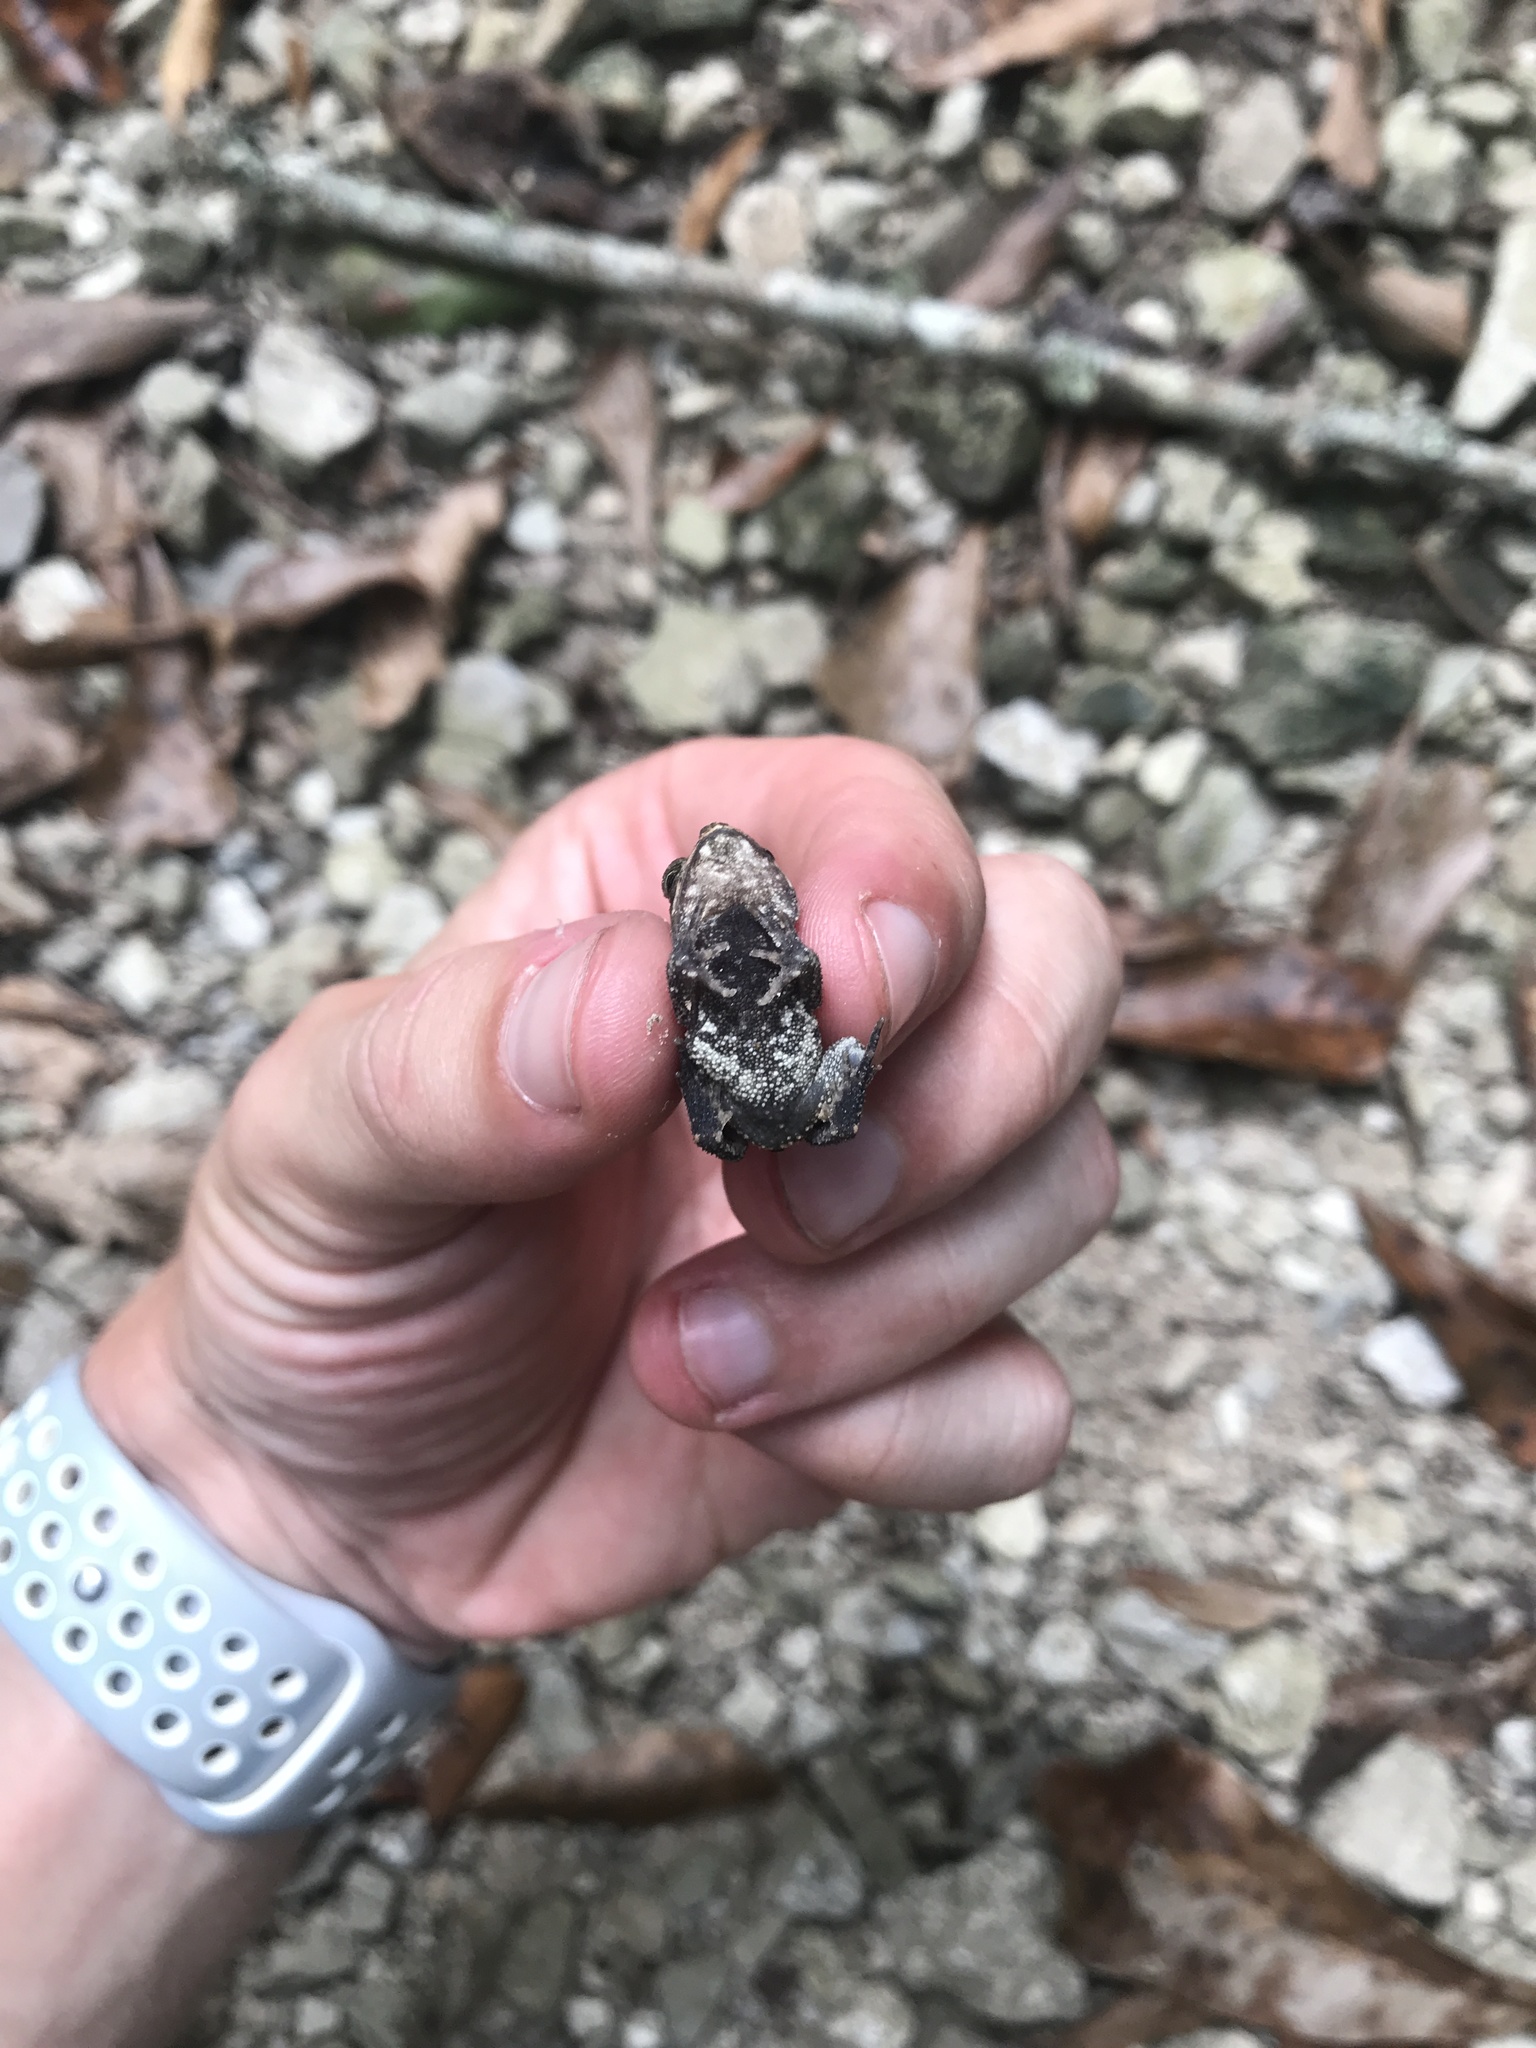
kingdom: Animalia
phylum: Chordata
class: Amphibia
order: Anura
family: Bufonidae
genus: Incilius
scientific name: Incilius nebulifer
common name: Gulf coast toad
